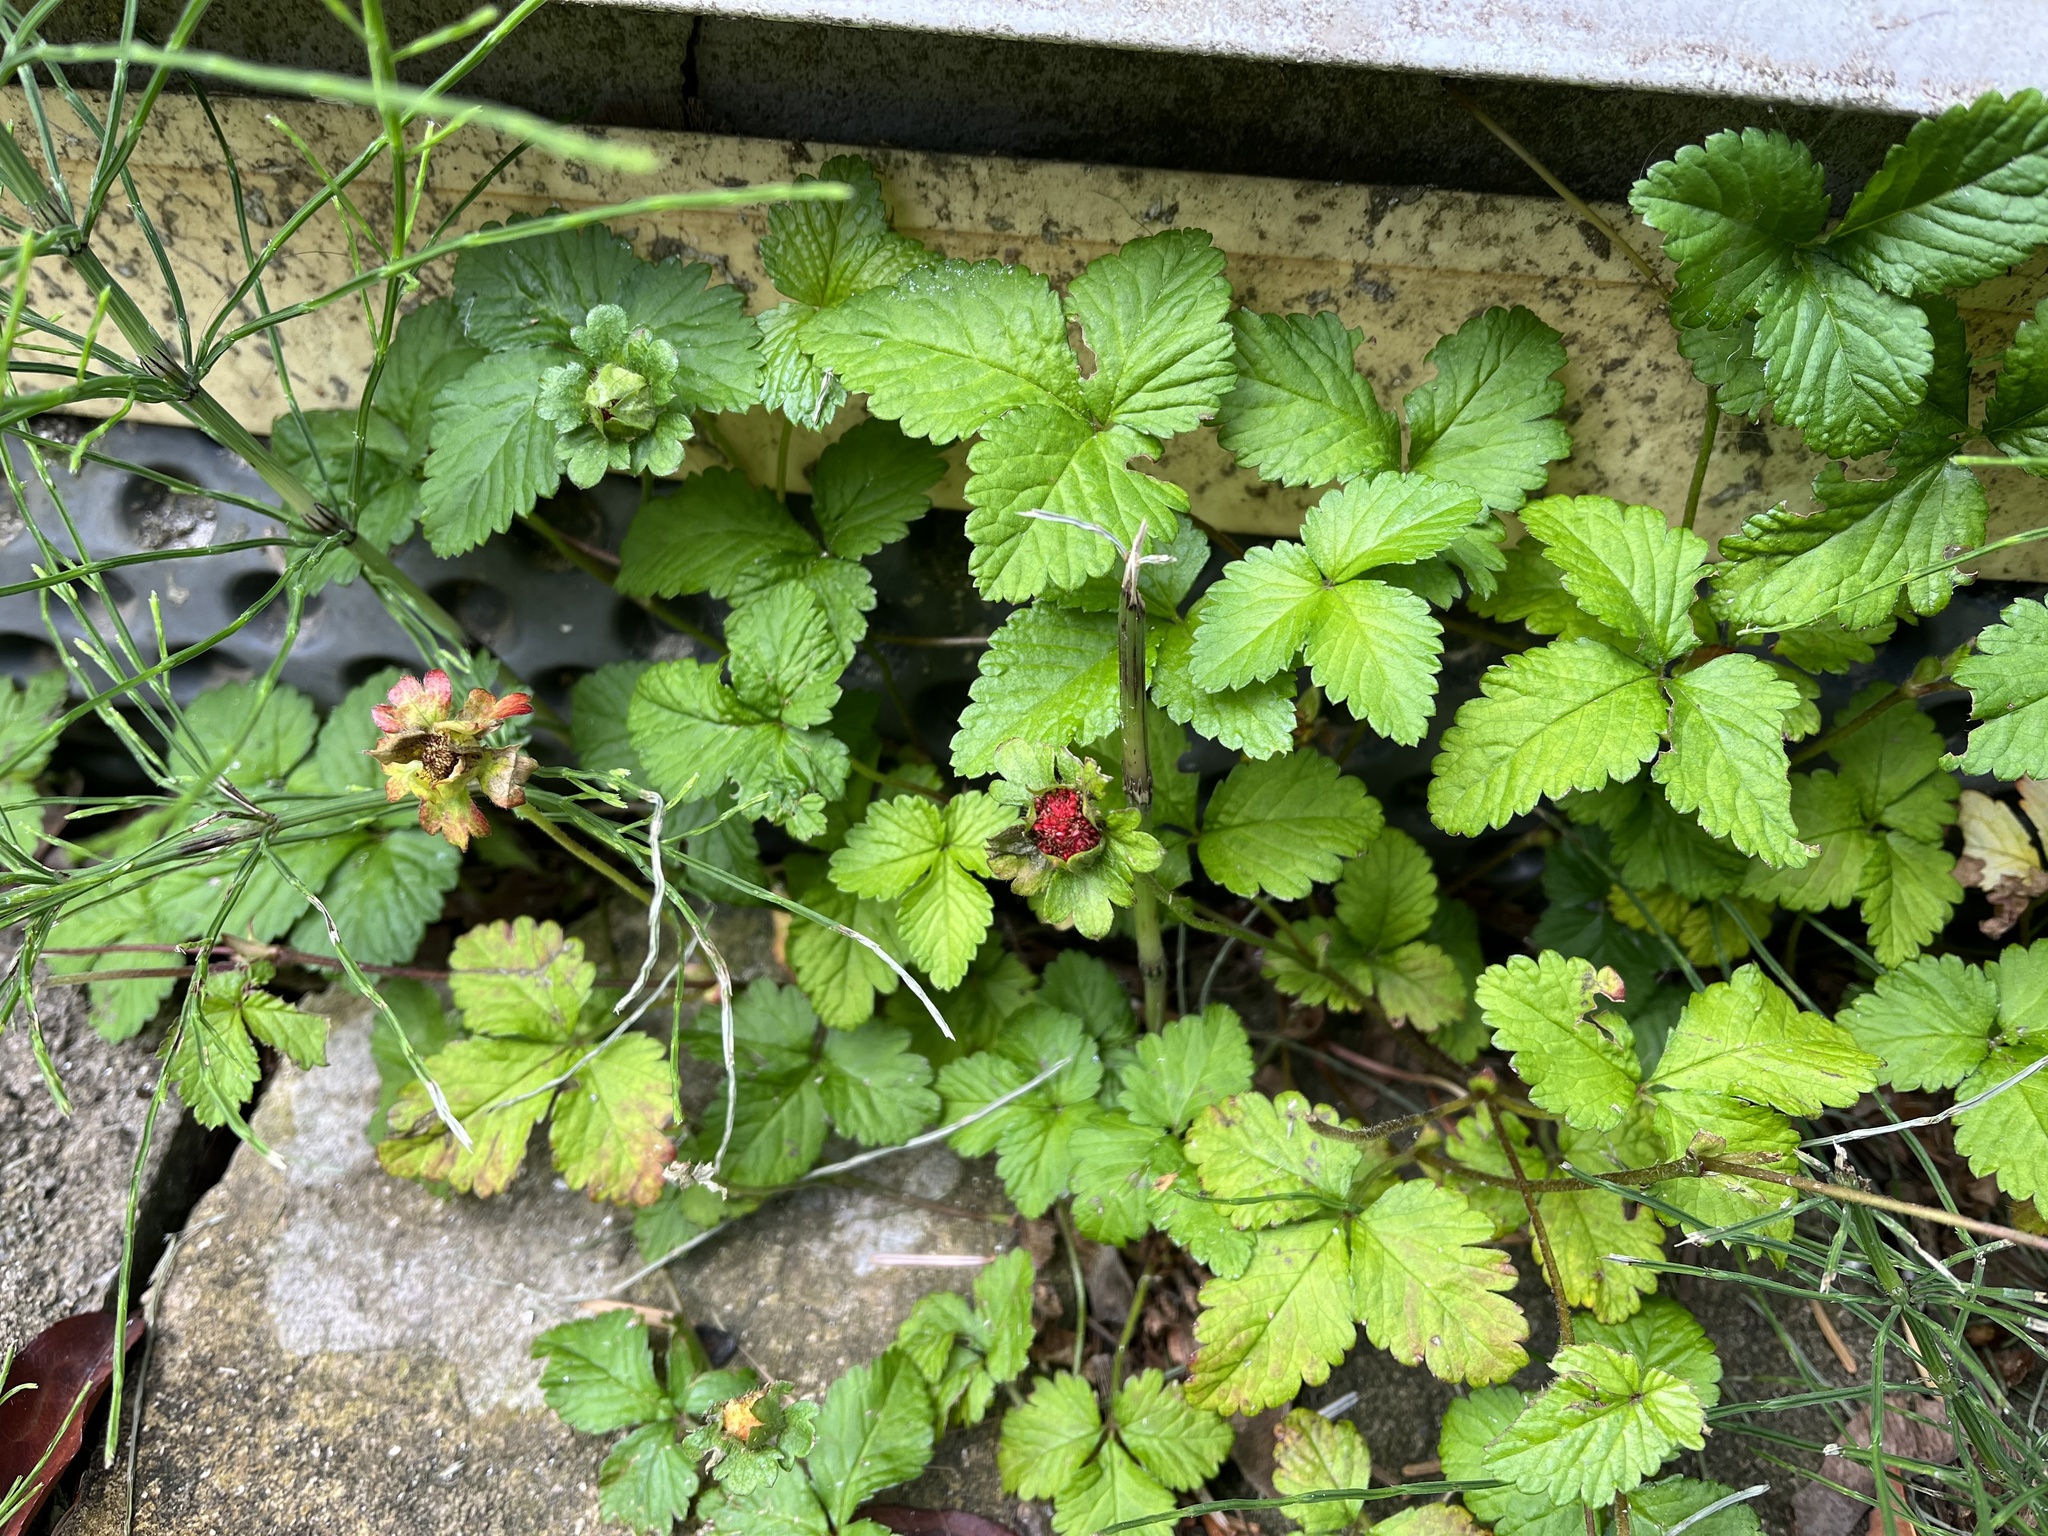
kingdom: Plantae
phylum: Tracheophyta
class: Magnoliopsida
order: Rosales
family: Rosaceae
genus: Potentilla
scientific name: Potentilla indica
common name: Yellow-flowered strawberry
